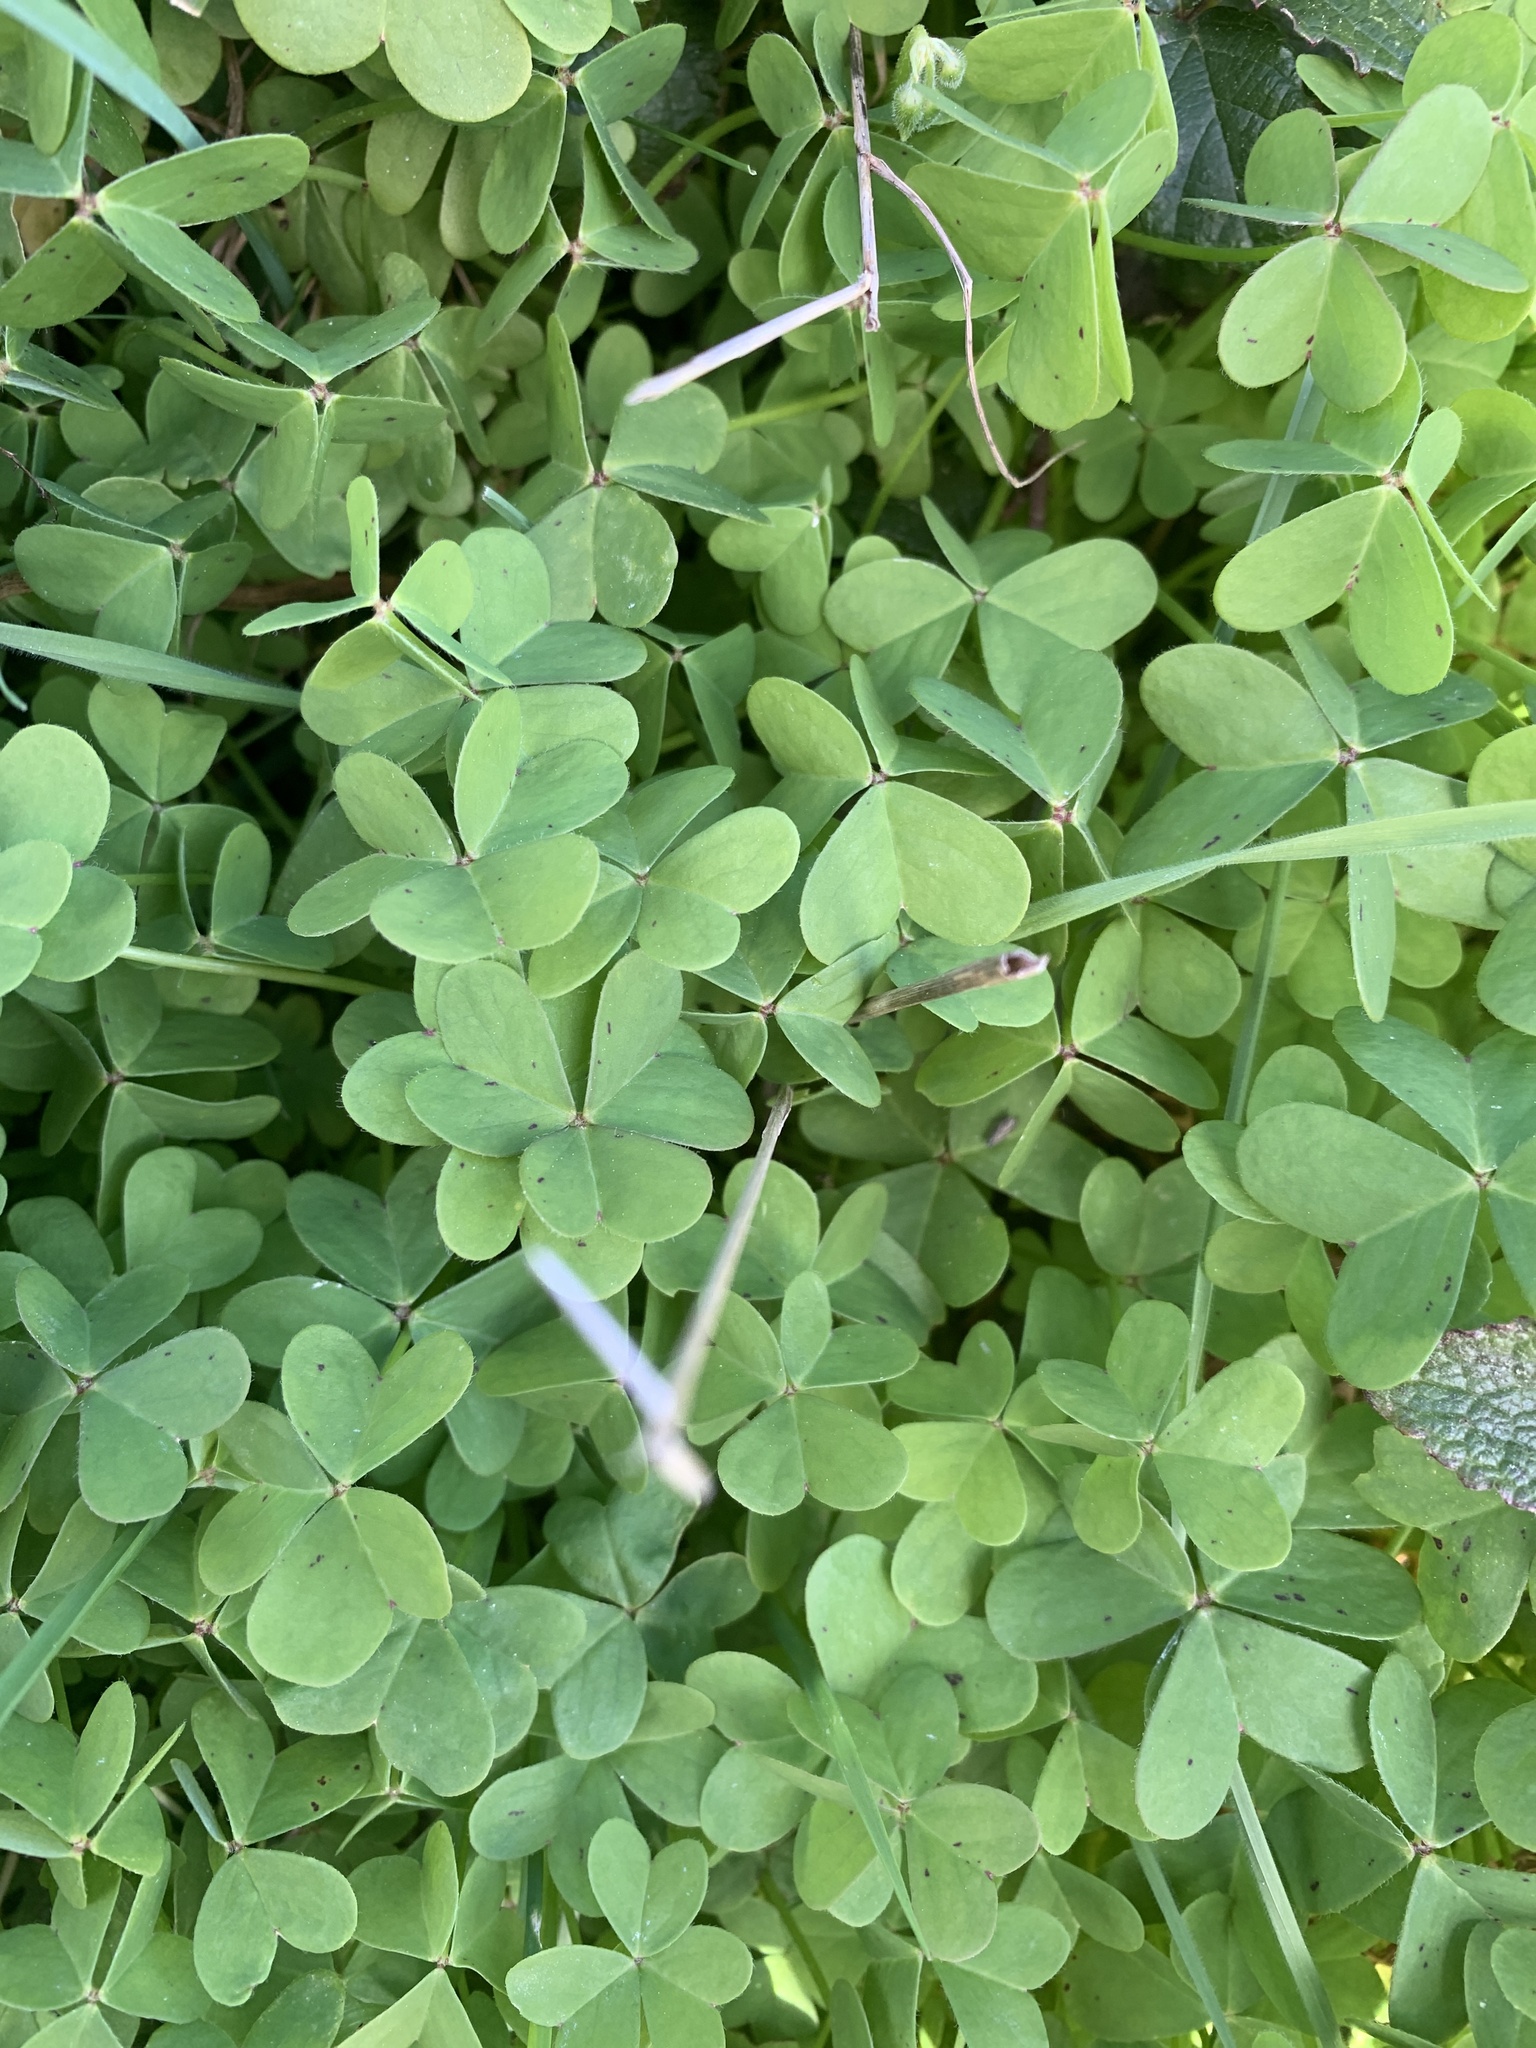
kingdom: Plantae
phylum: Tracheophyta
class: Magnoliopsida
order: Oxalidales
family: Oxalidaceae
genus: Oxalis
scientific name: Oxalis pes-caprae
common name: Bermuda-buttercup
